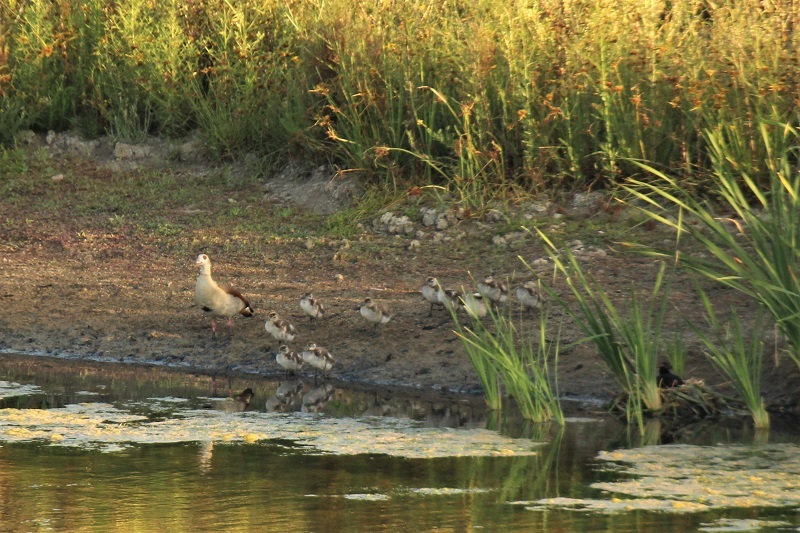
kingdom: Animalia
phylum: Chordata
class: Aves
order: Anseriformes
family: Anatidae
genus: Alopochen
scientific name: Alopochen aegyptiaca
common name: Egyptian goose
